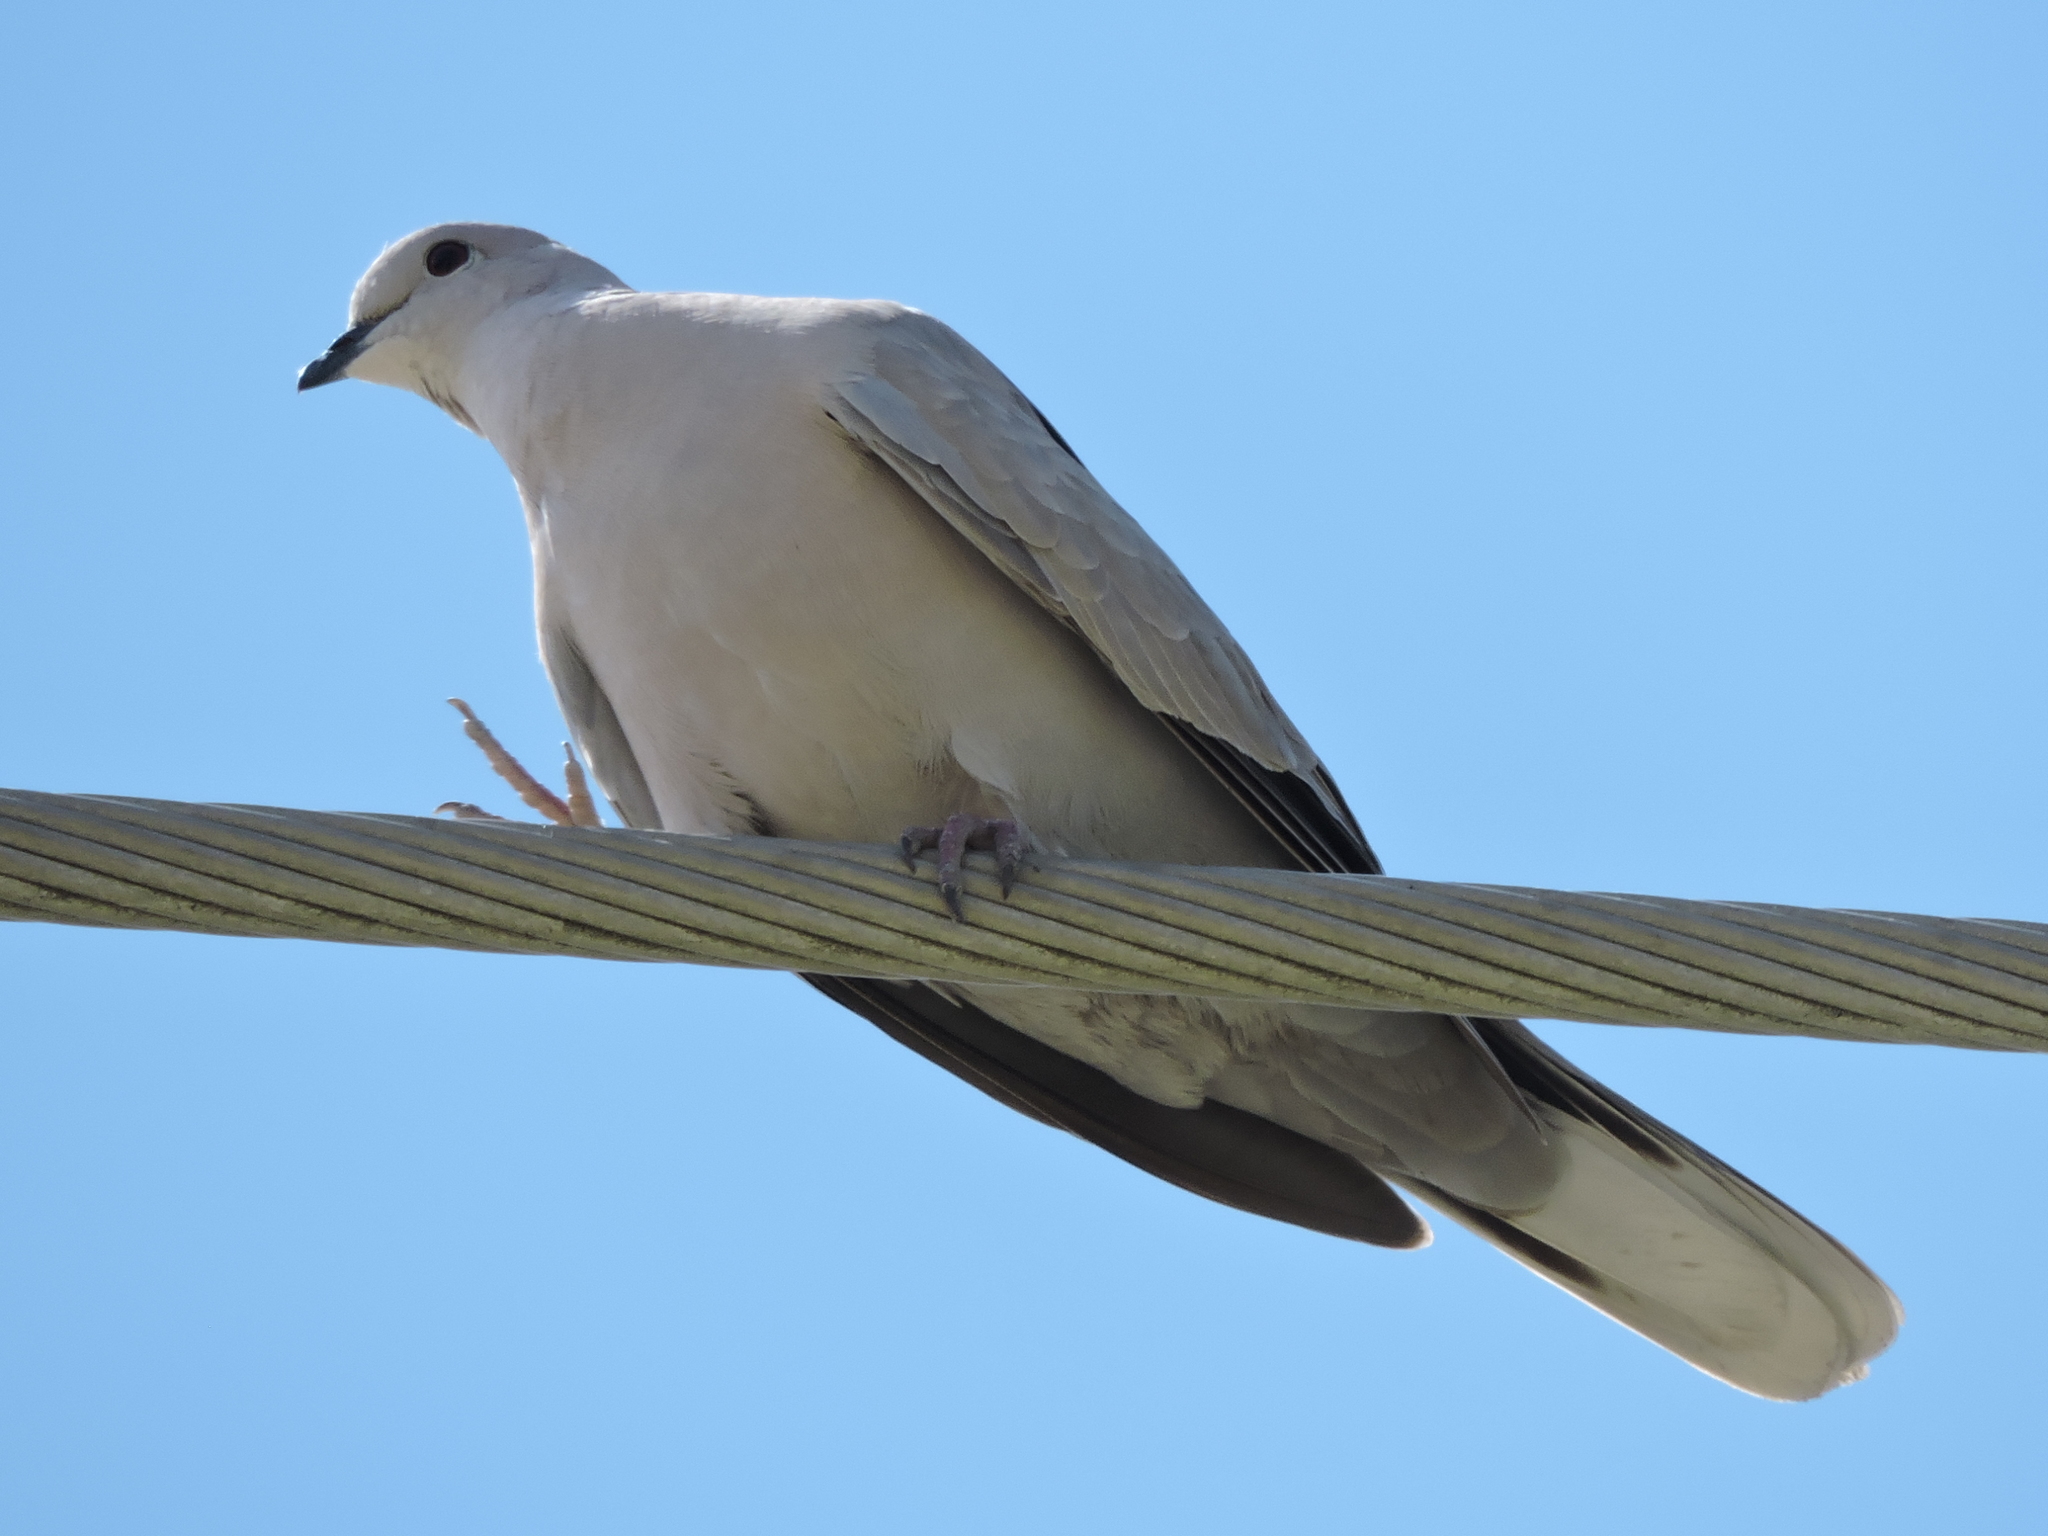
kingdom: Animalia
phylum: Chordata
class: Aves
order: Columbiformes
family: Columbidae
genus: Streptopelia
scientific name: Streptopelia decaocto
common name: Eurasian collared dove
